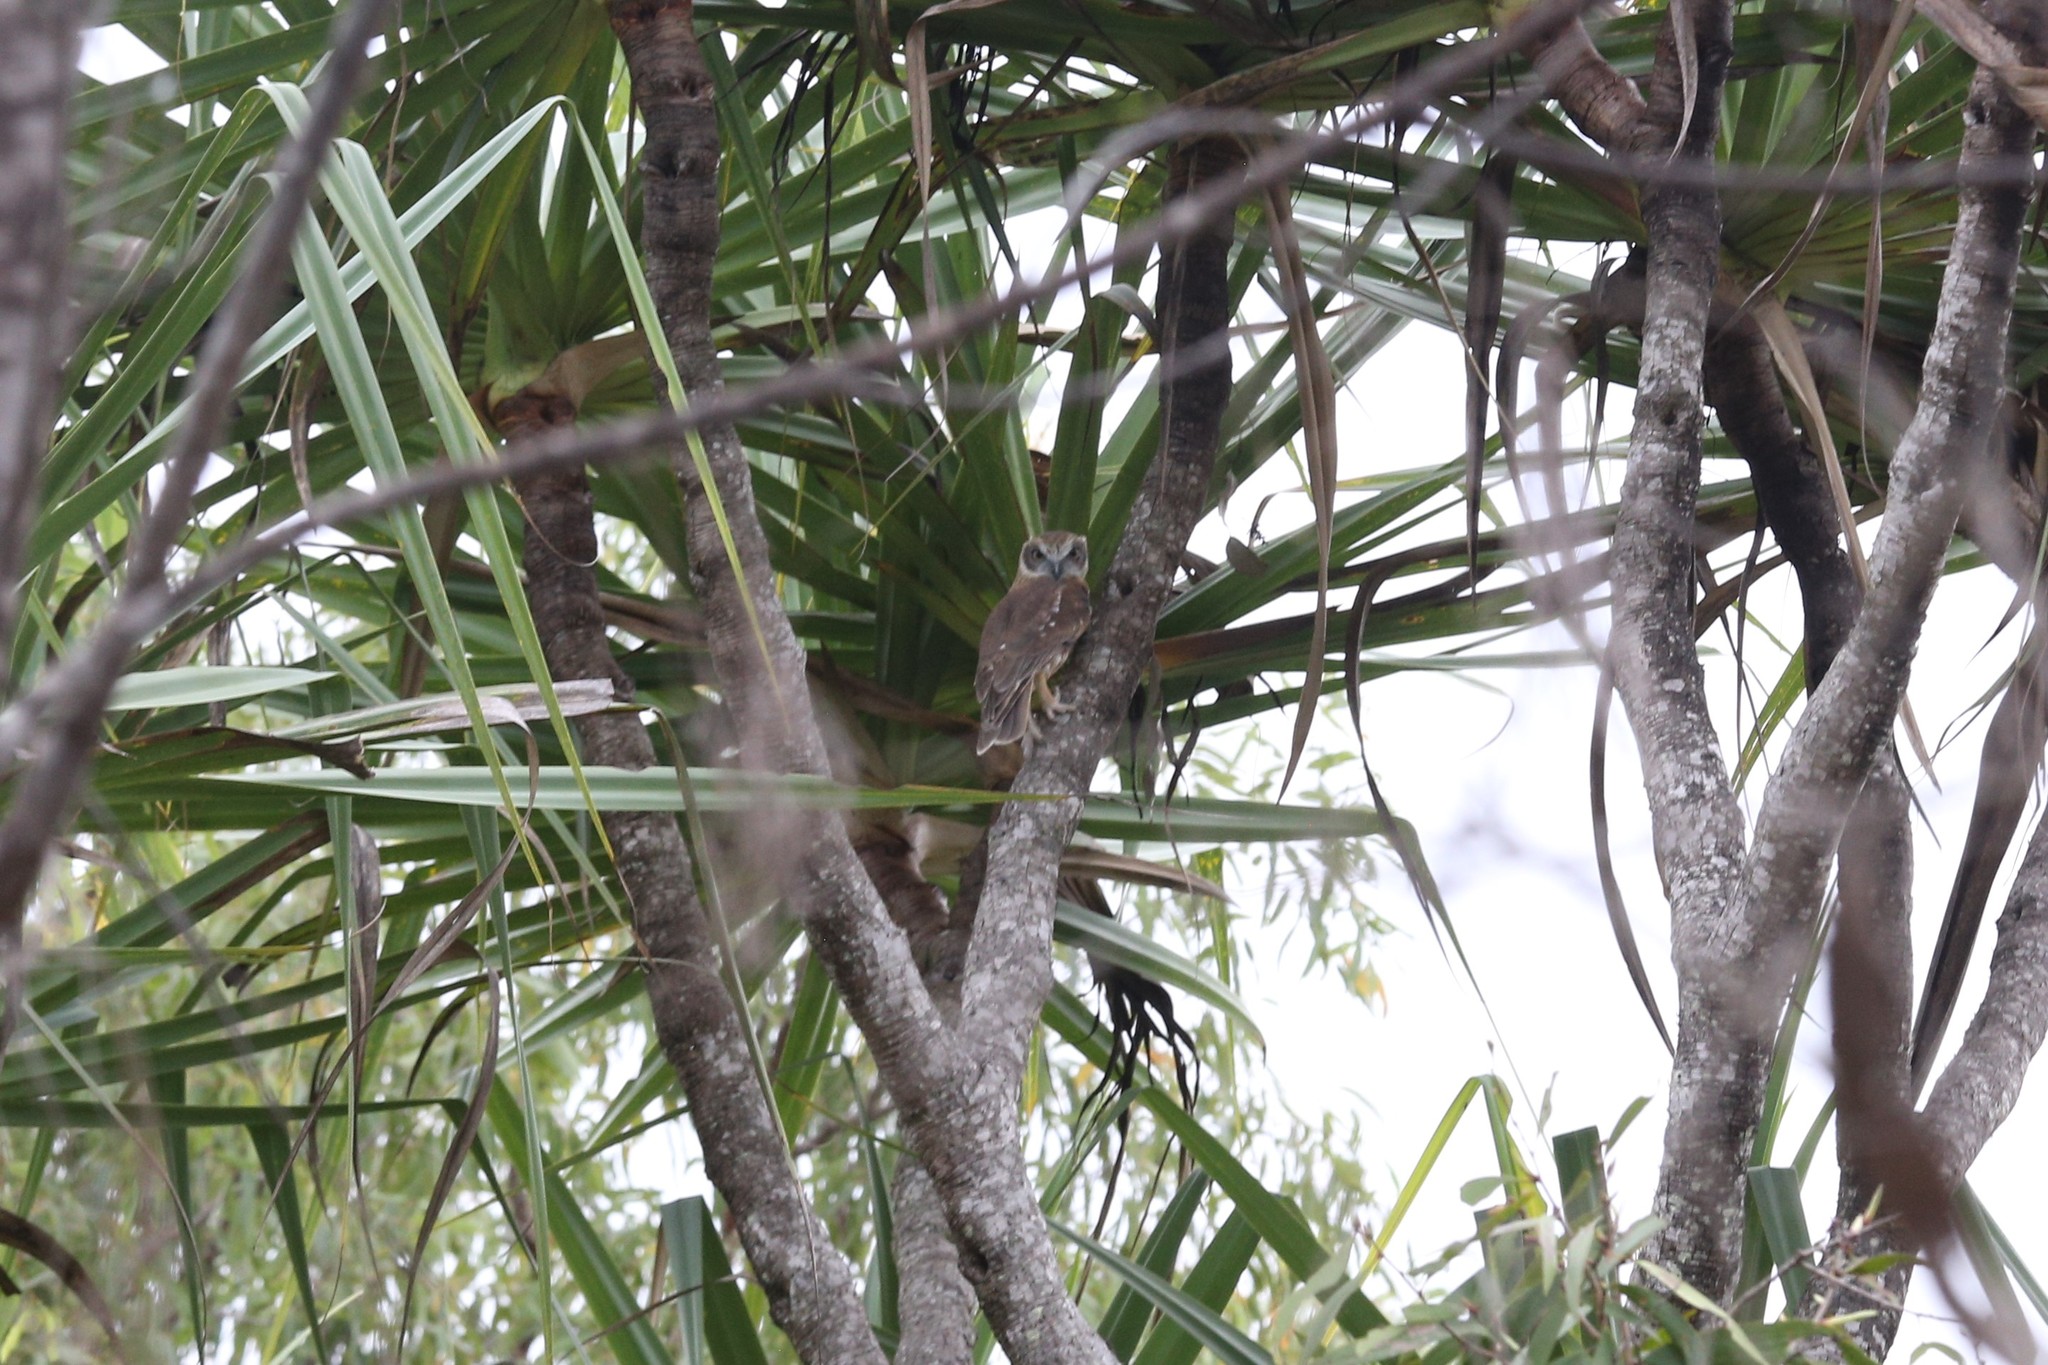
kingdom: Animalia
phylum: Chordata
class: Aves
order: Strigiformes
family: Strigidae
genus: Ninox
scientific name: Ninox boobook
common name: Southern boobook
